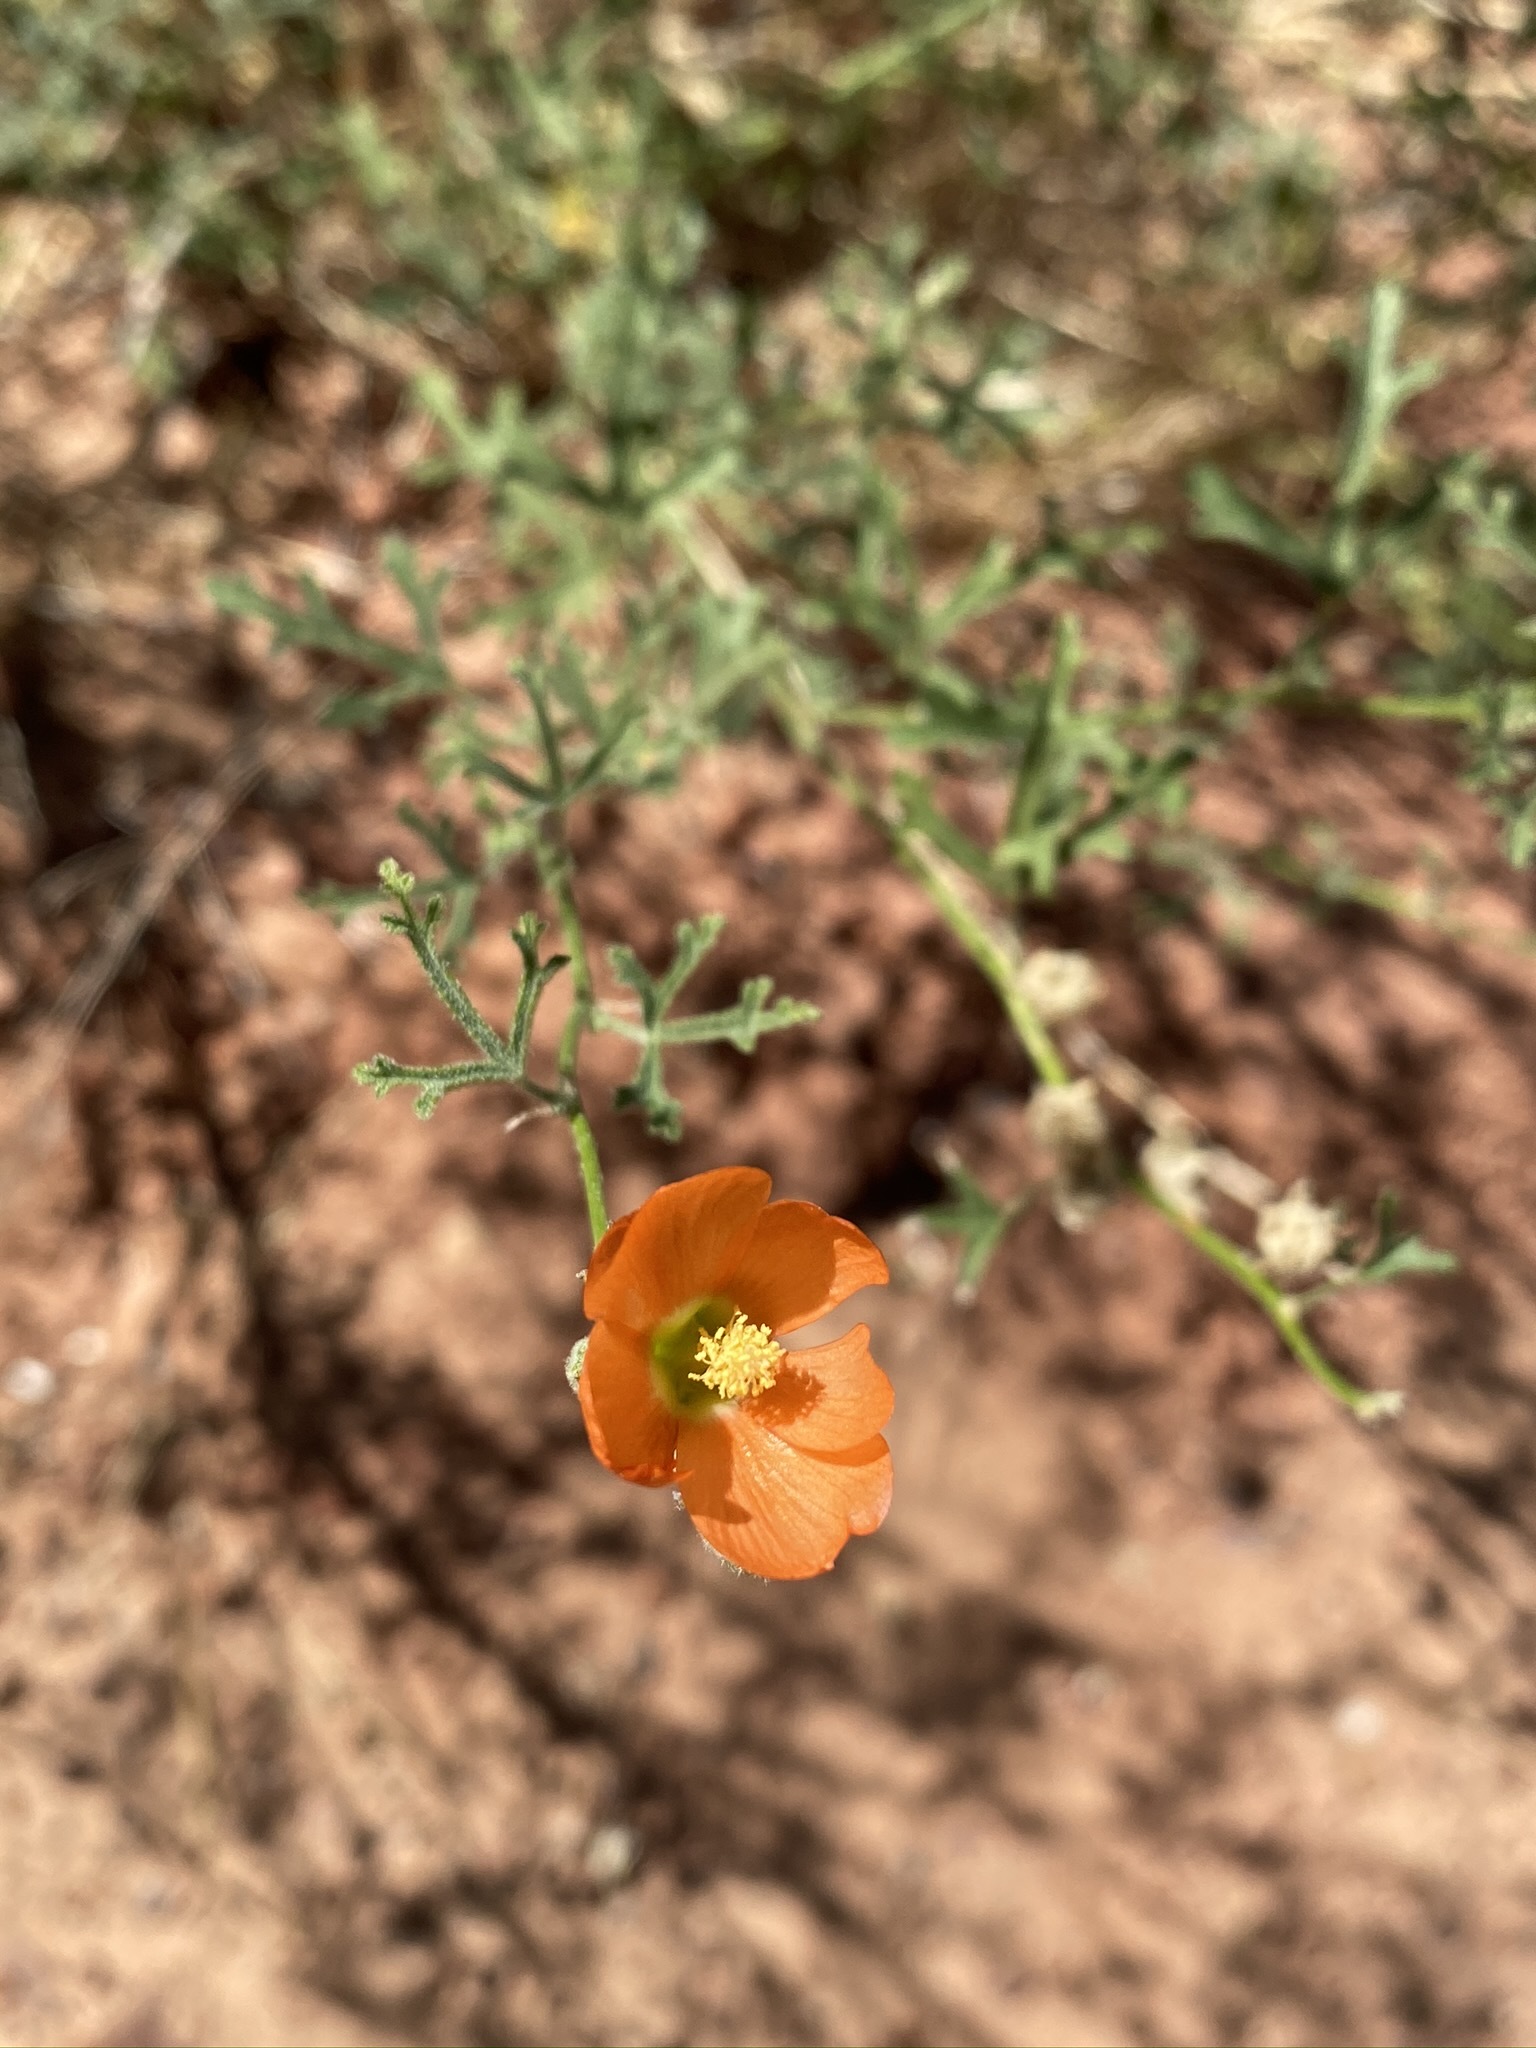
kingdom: Plantae
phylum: Tracheophyta
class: Magnoliopsida
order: Malvales
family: Malvaceae
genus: Sphaeralcea
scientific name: Sphaeralcea rusbyi
